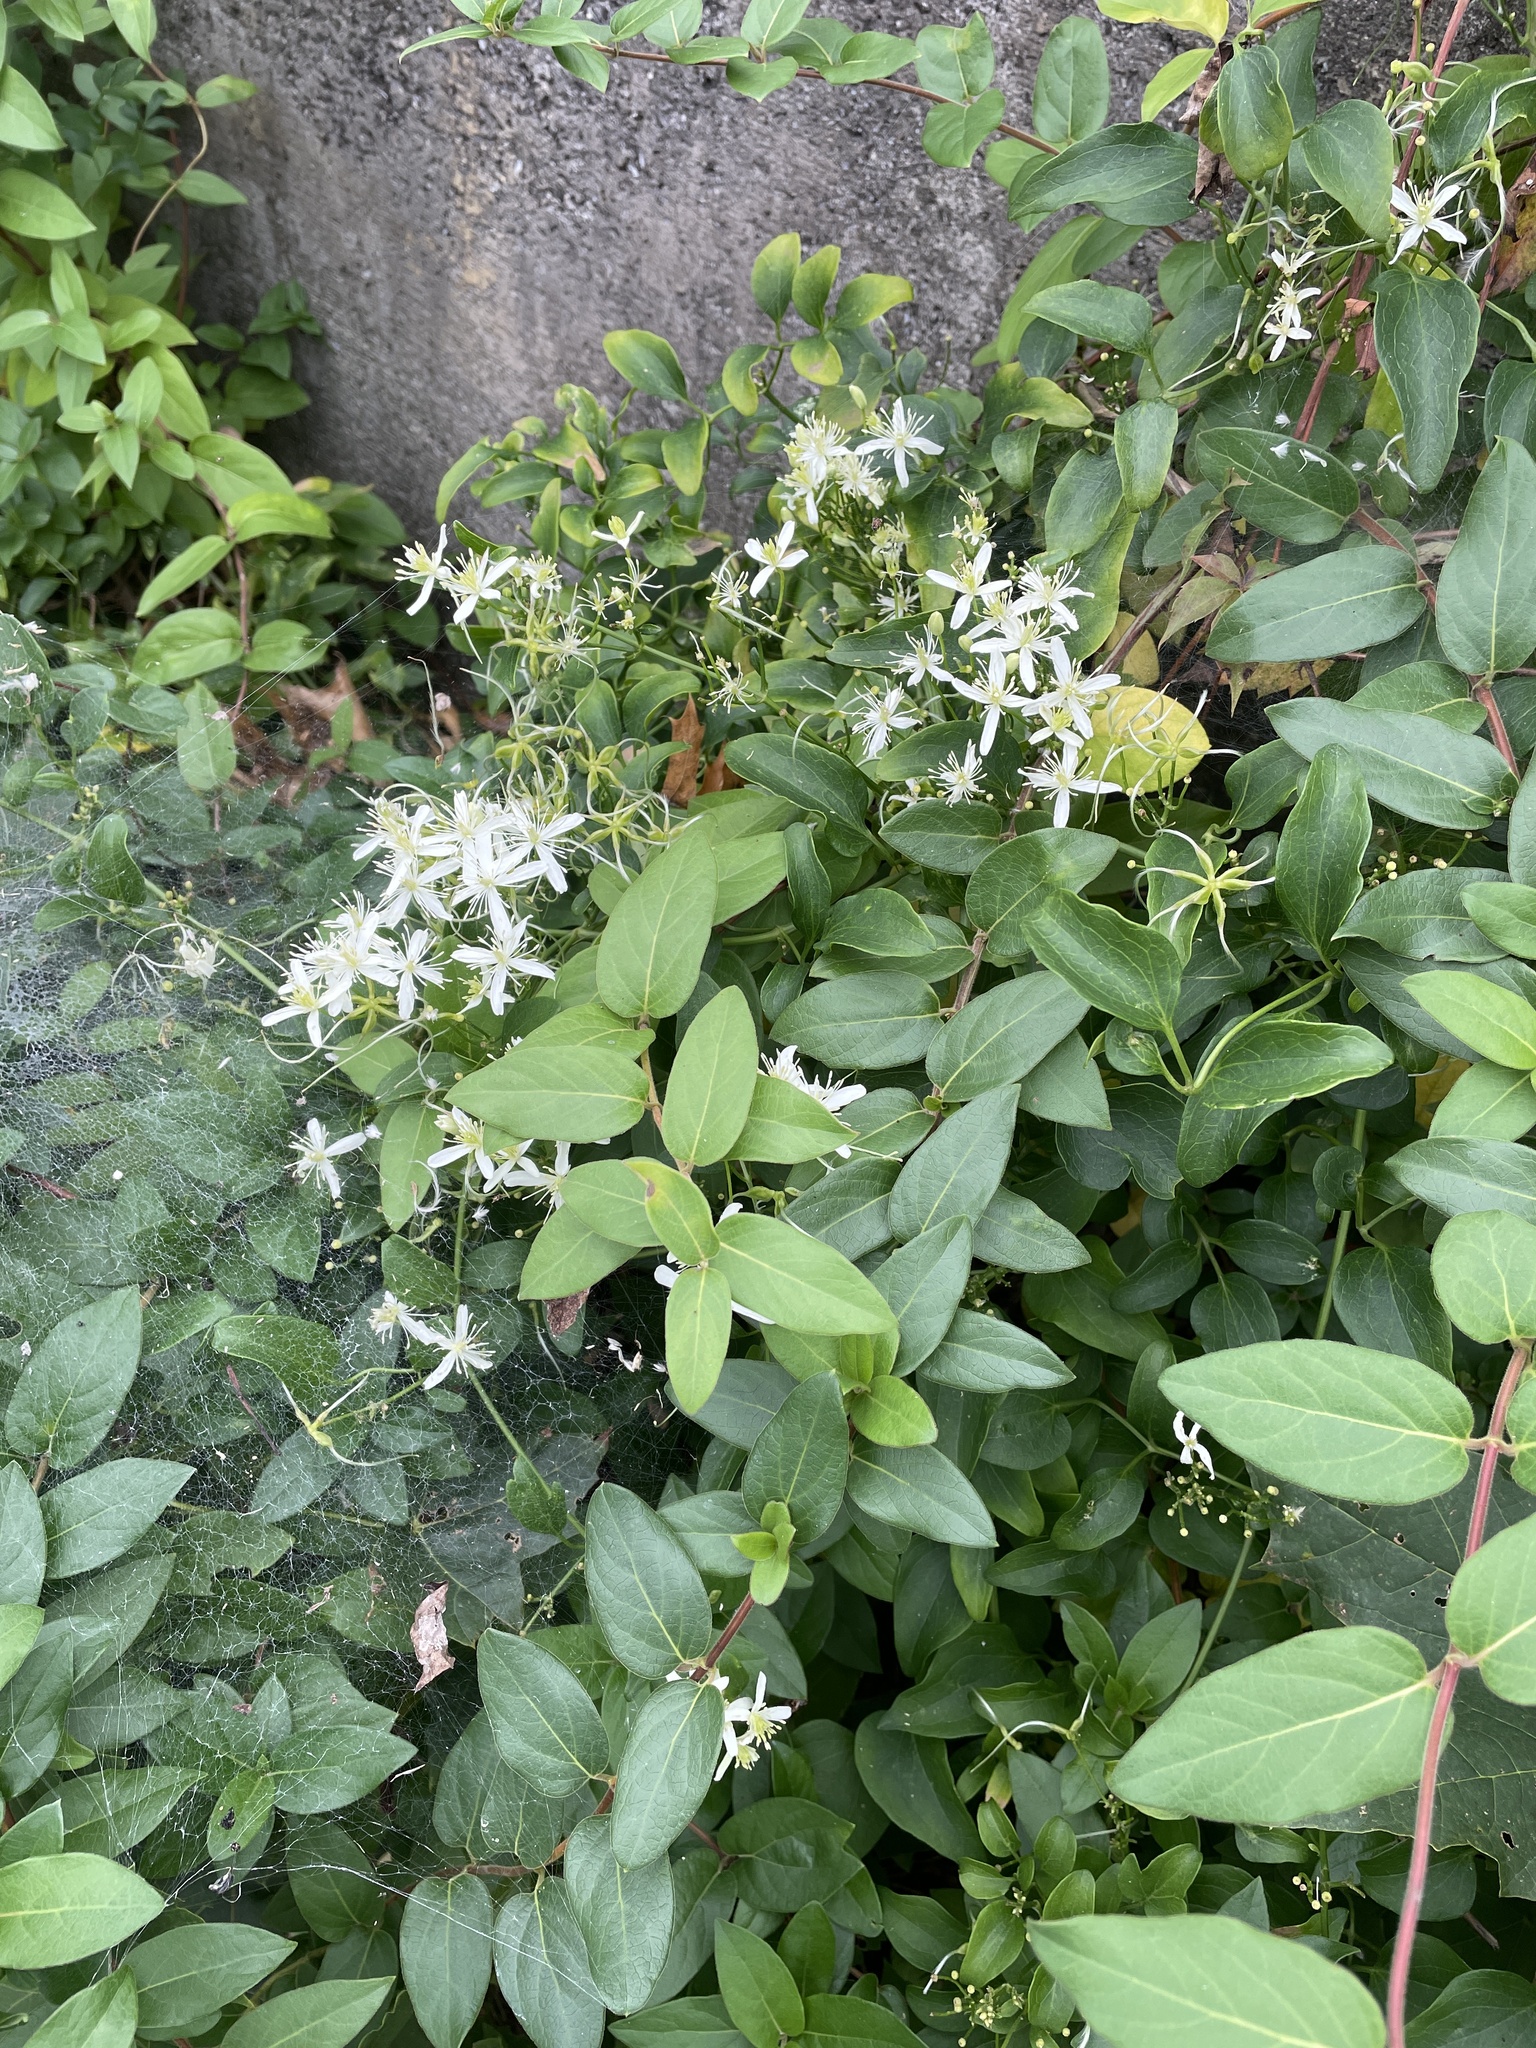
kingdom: Plantae
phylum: Tracheophyta
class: Magnoliopsida
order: Ranunculales
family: Ranunculaceae
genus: Clematis
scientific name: Clematis terniflora
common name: Sweet autumn clematis
